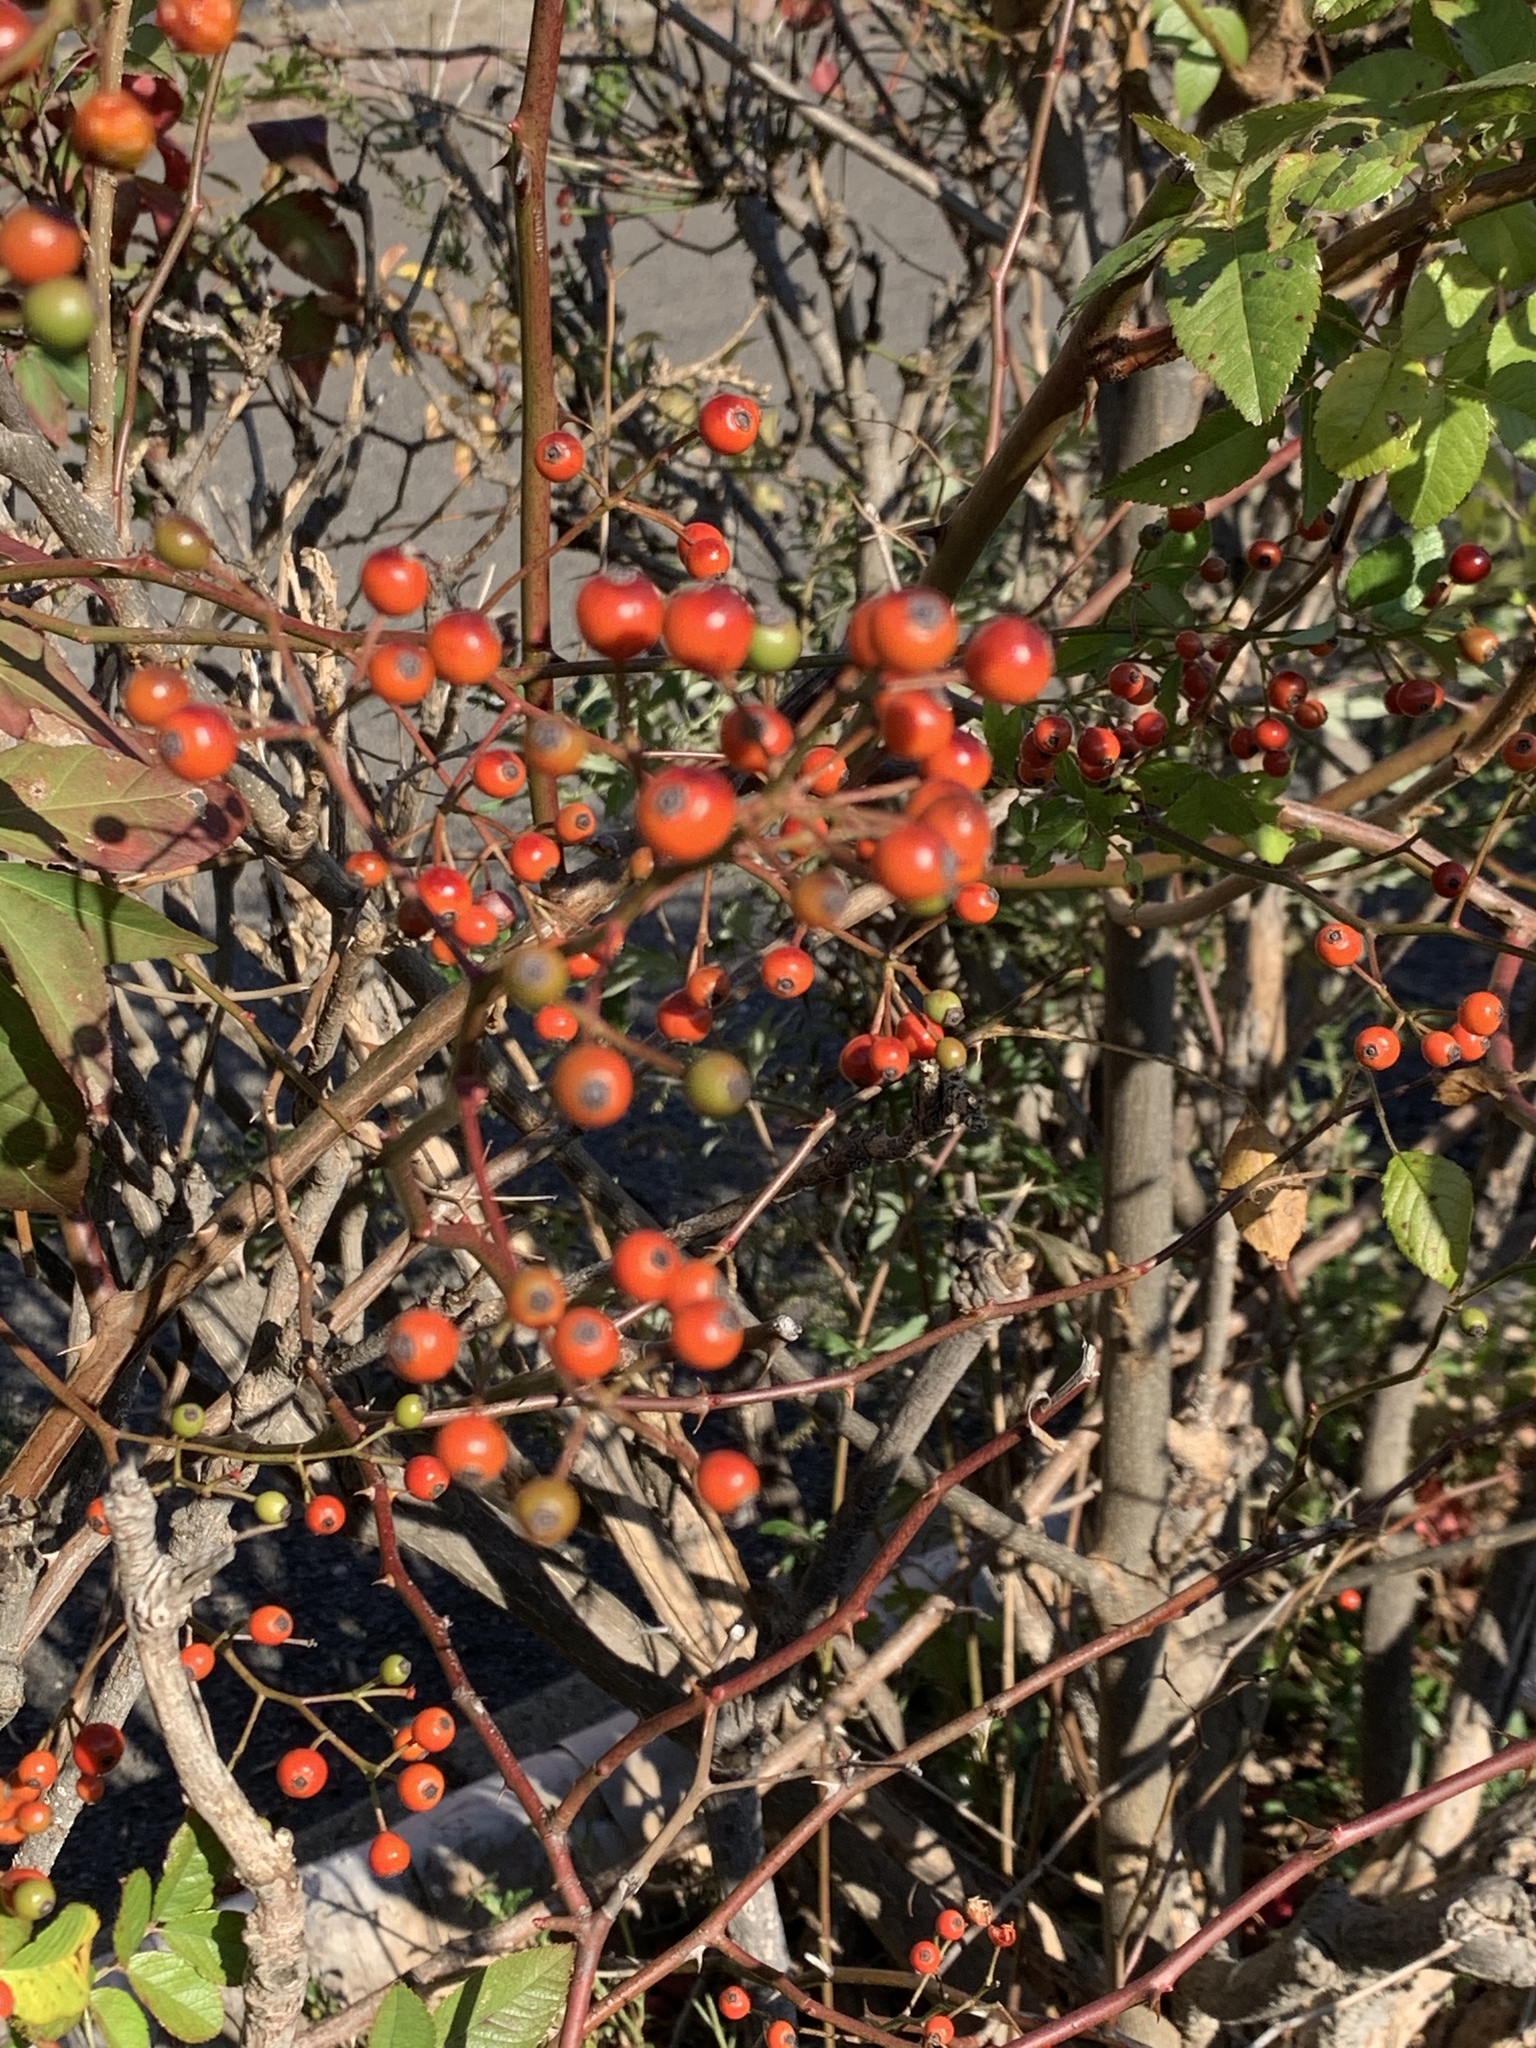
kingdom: Plantae
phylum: Tracheophyta
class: Magnoliopsida
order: Rosales
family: Rosaceae
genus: Rosa
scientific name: Rosa multiflora
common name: Multiflora rose
